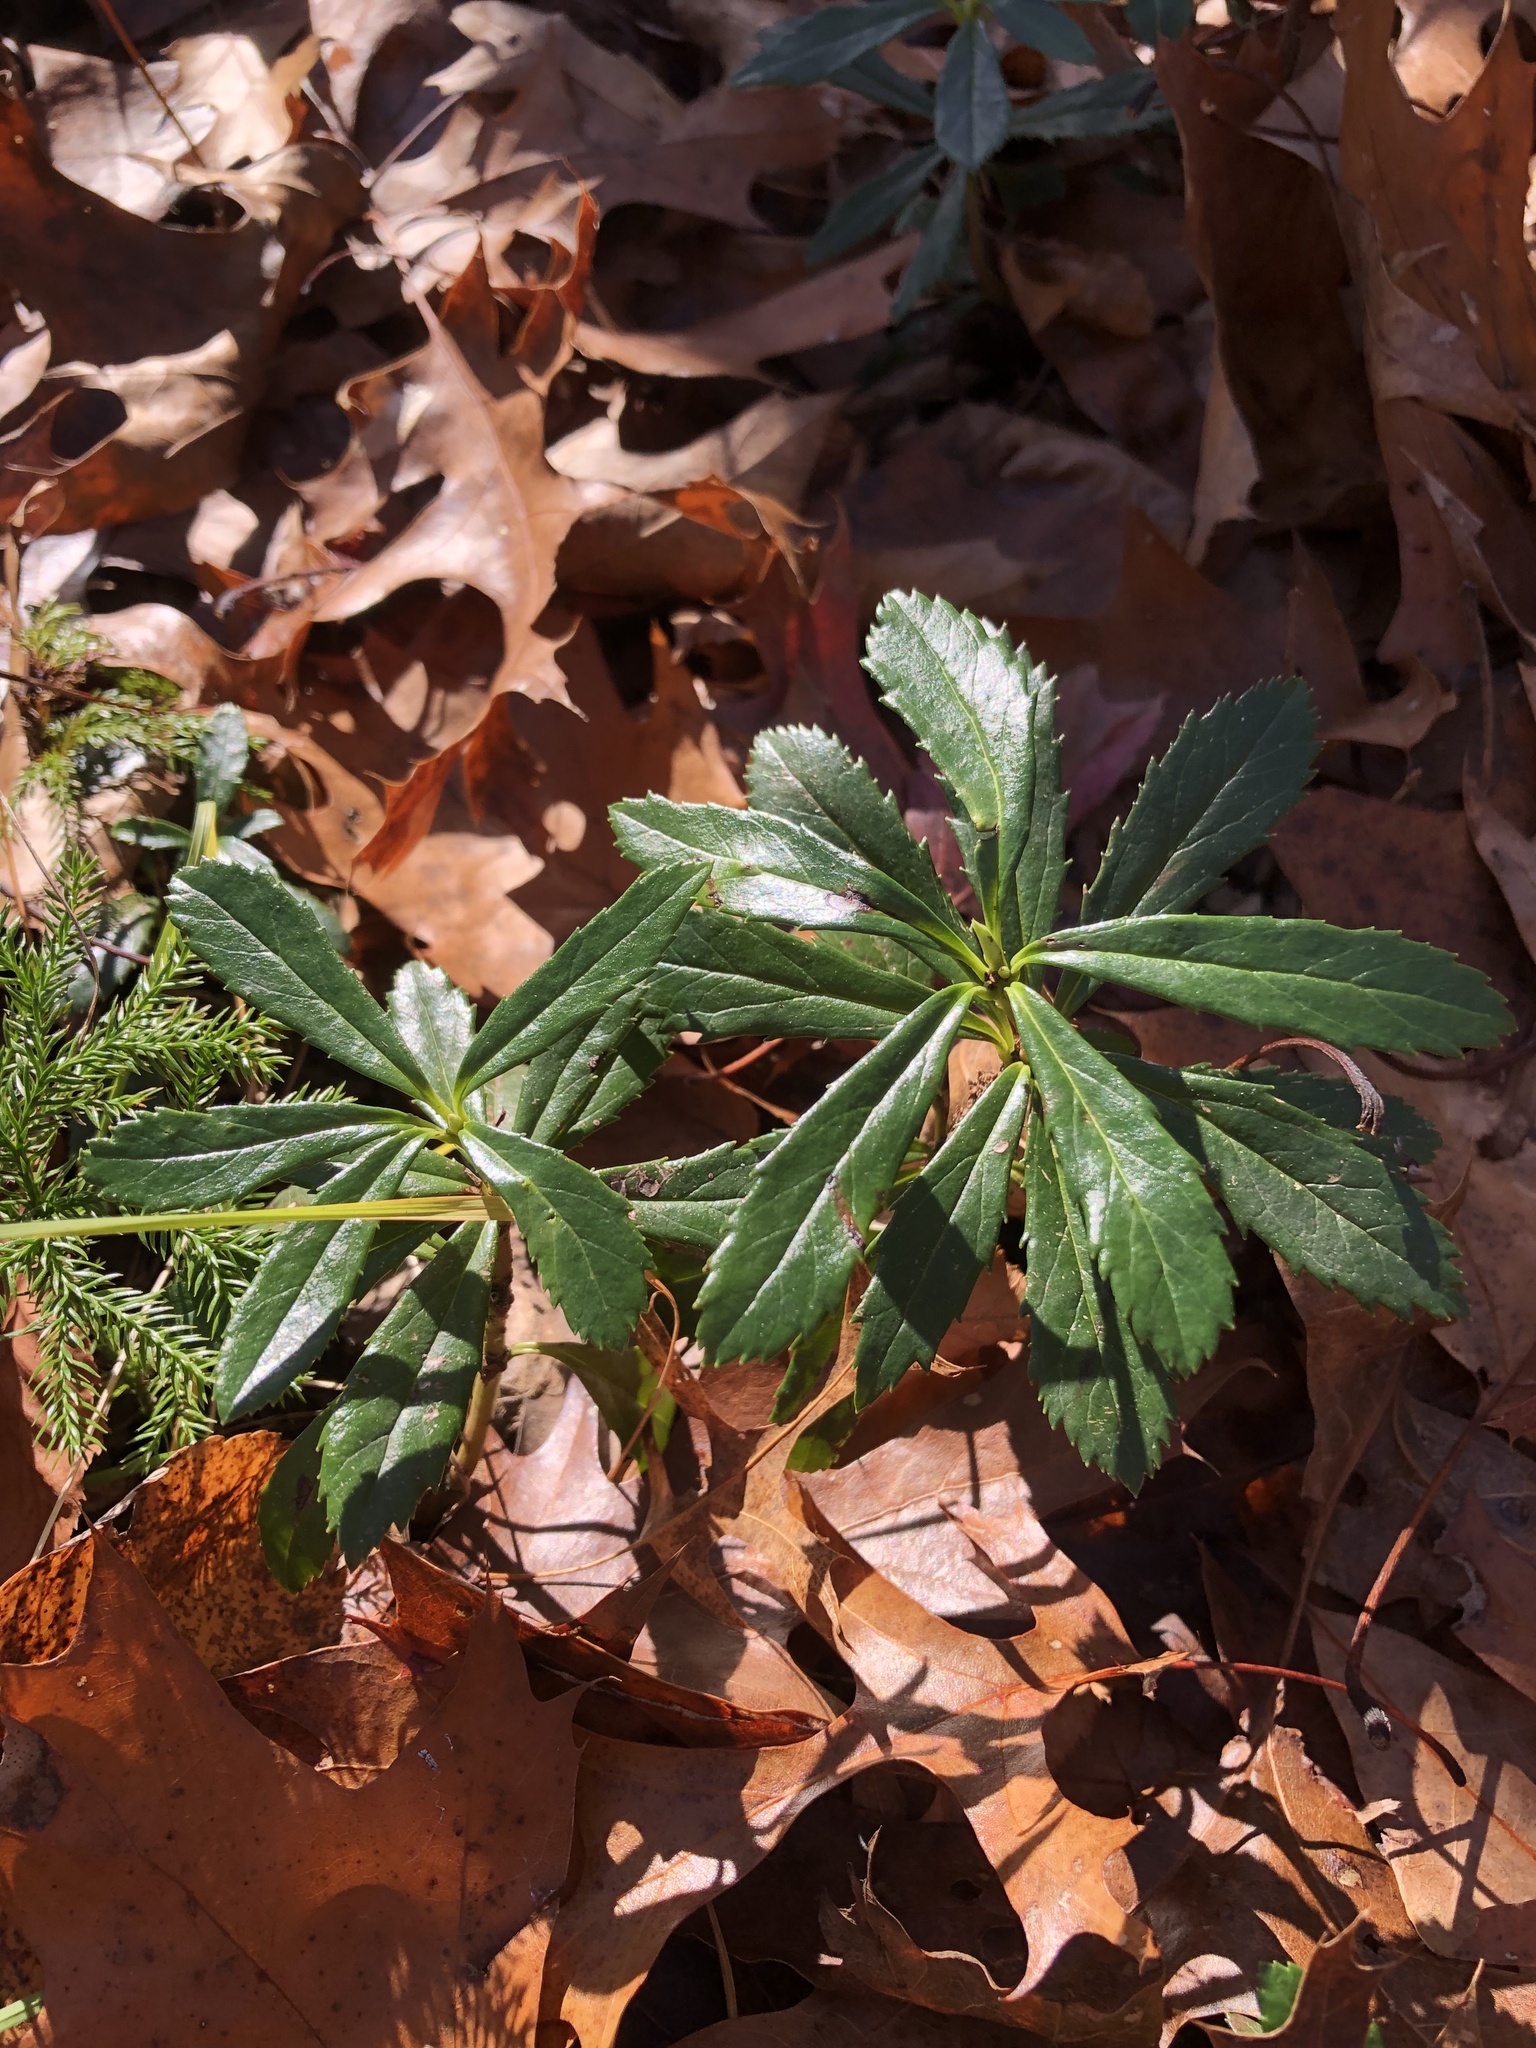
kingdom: Plantae
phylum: Tracheophyta
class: Magnoliopsida
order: Ericales
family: Ericaceae
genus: Chimaphila
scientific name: Chimaphila umbellata
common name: Pipsissewa
